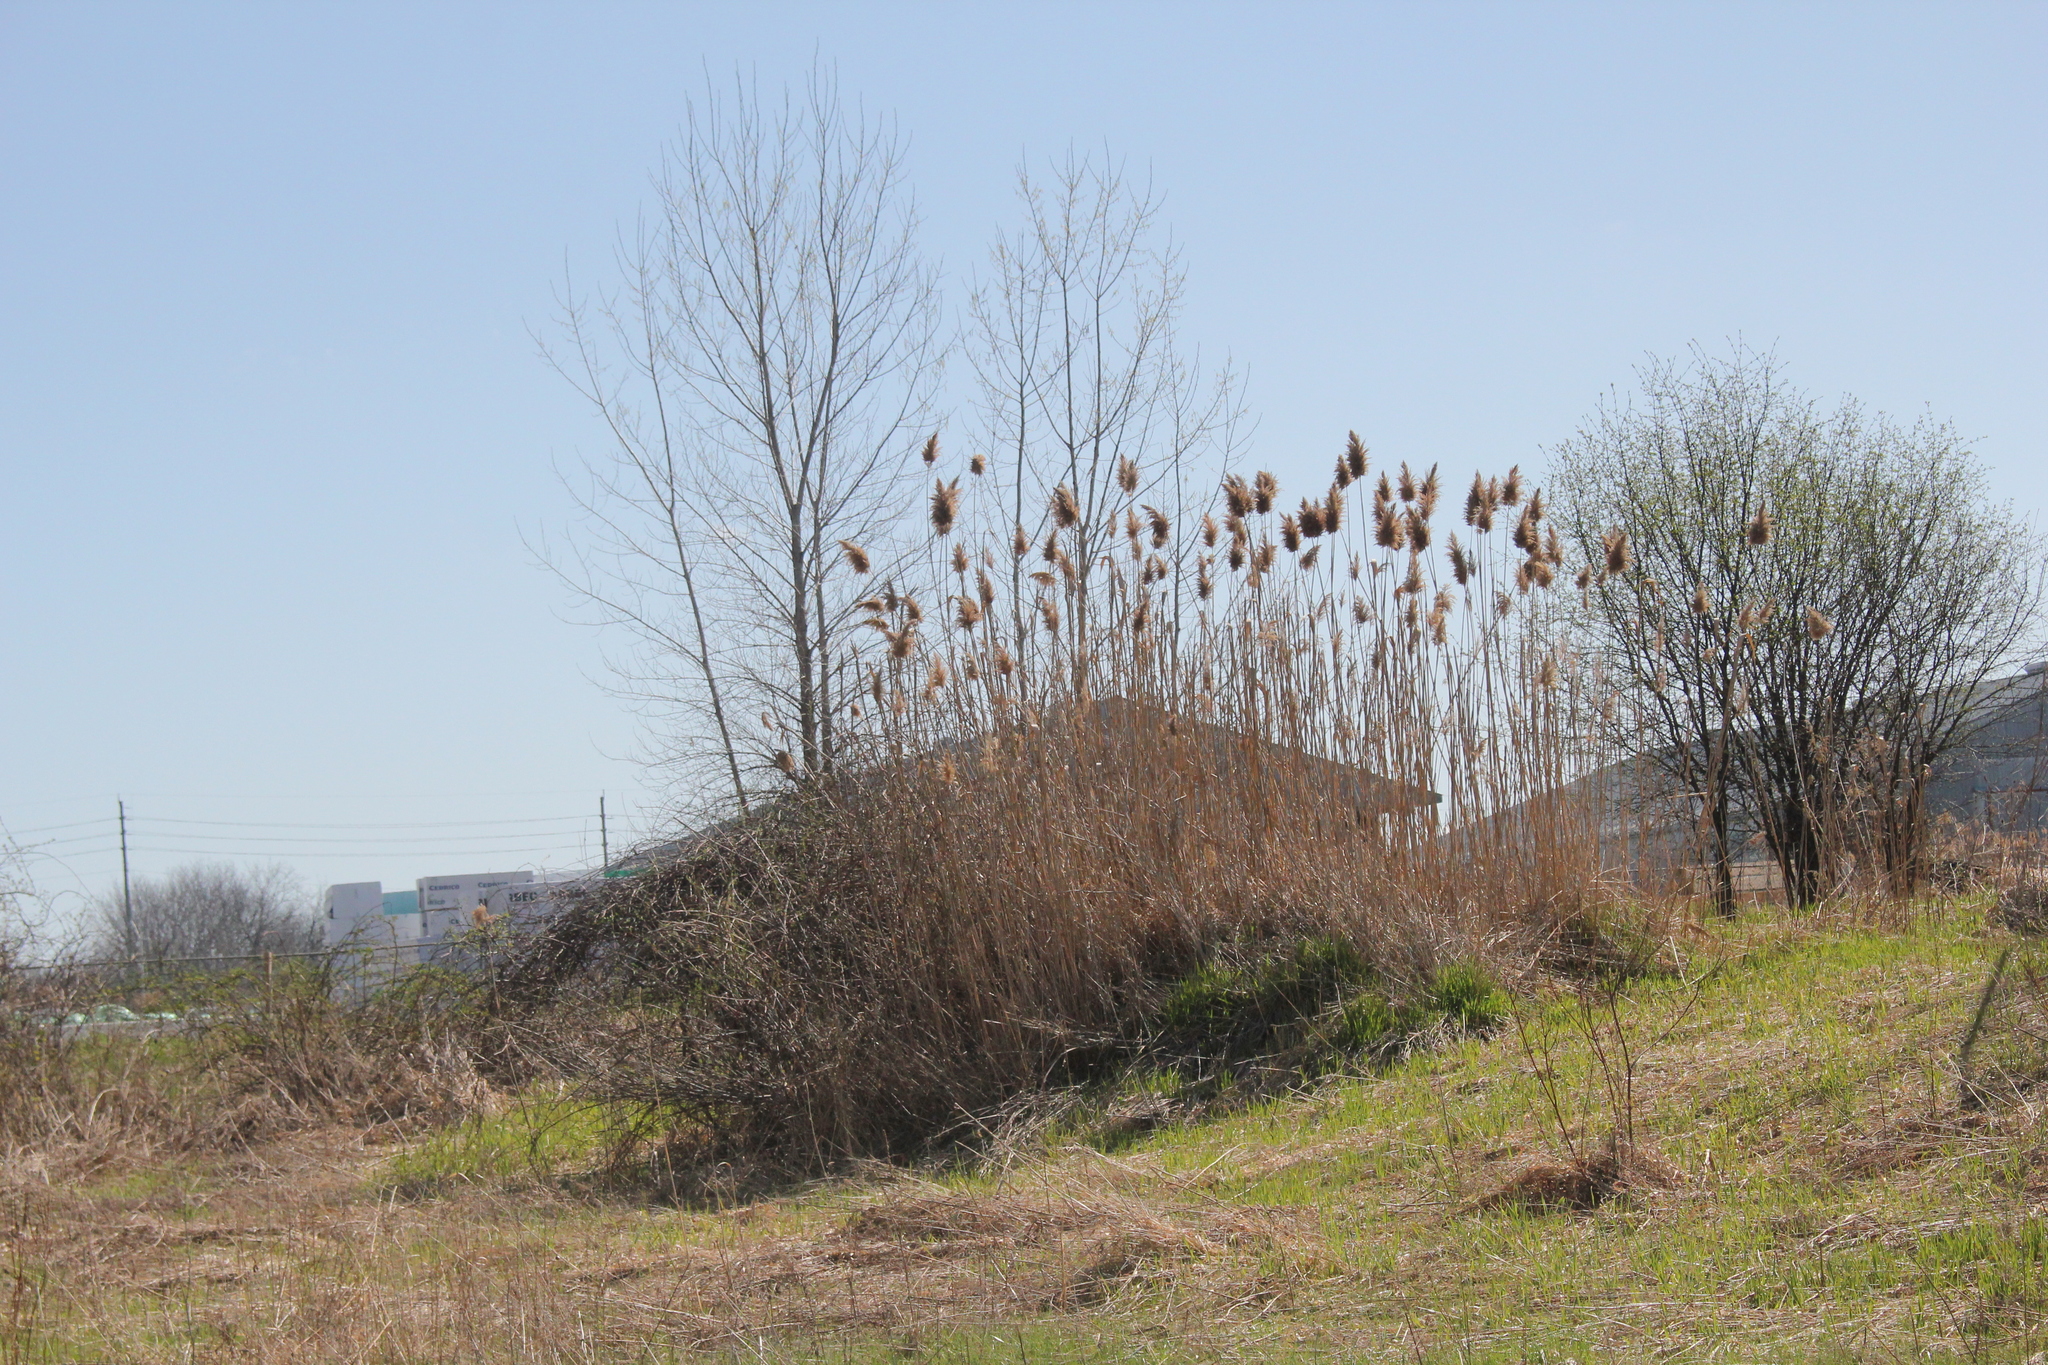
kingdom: Plantae
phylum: Tracheophyta
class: Liliopsida
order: Poales
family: Poaceae
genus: Phragmites
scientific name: Phragmites australis
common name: Common reed
